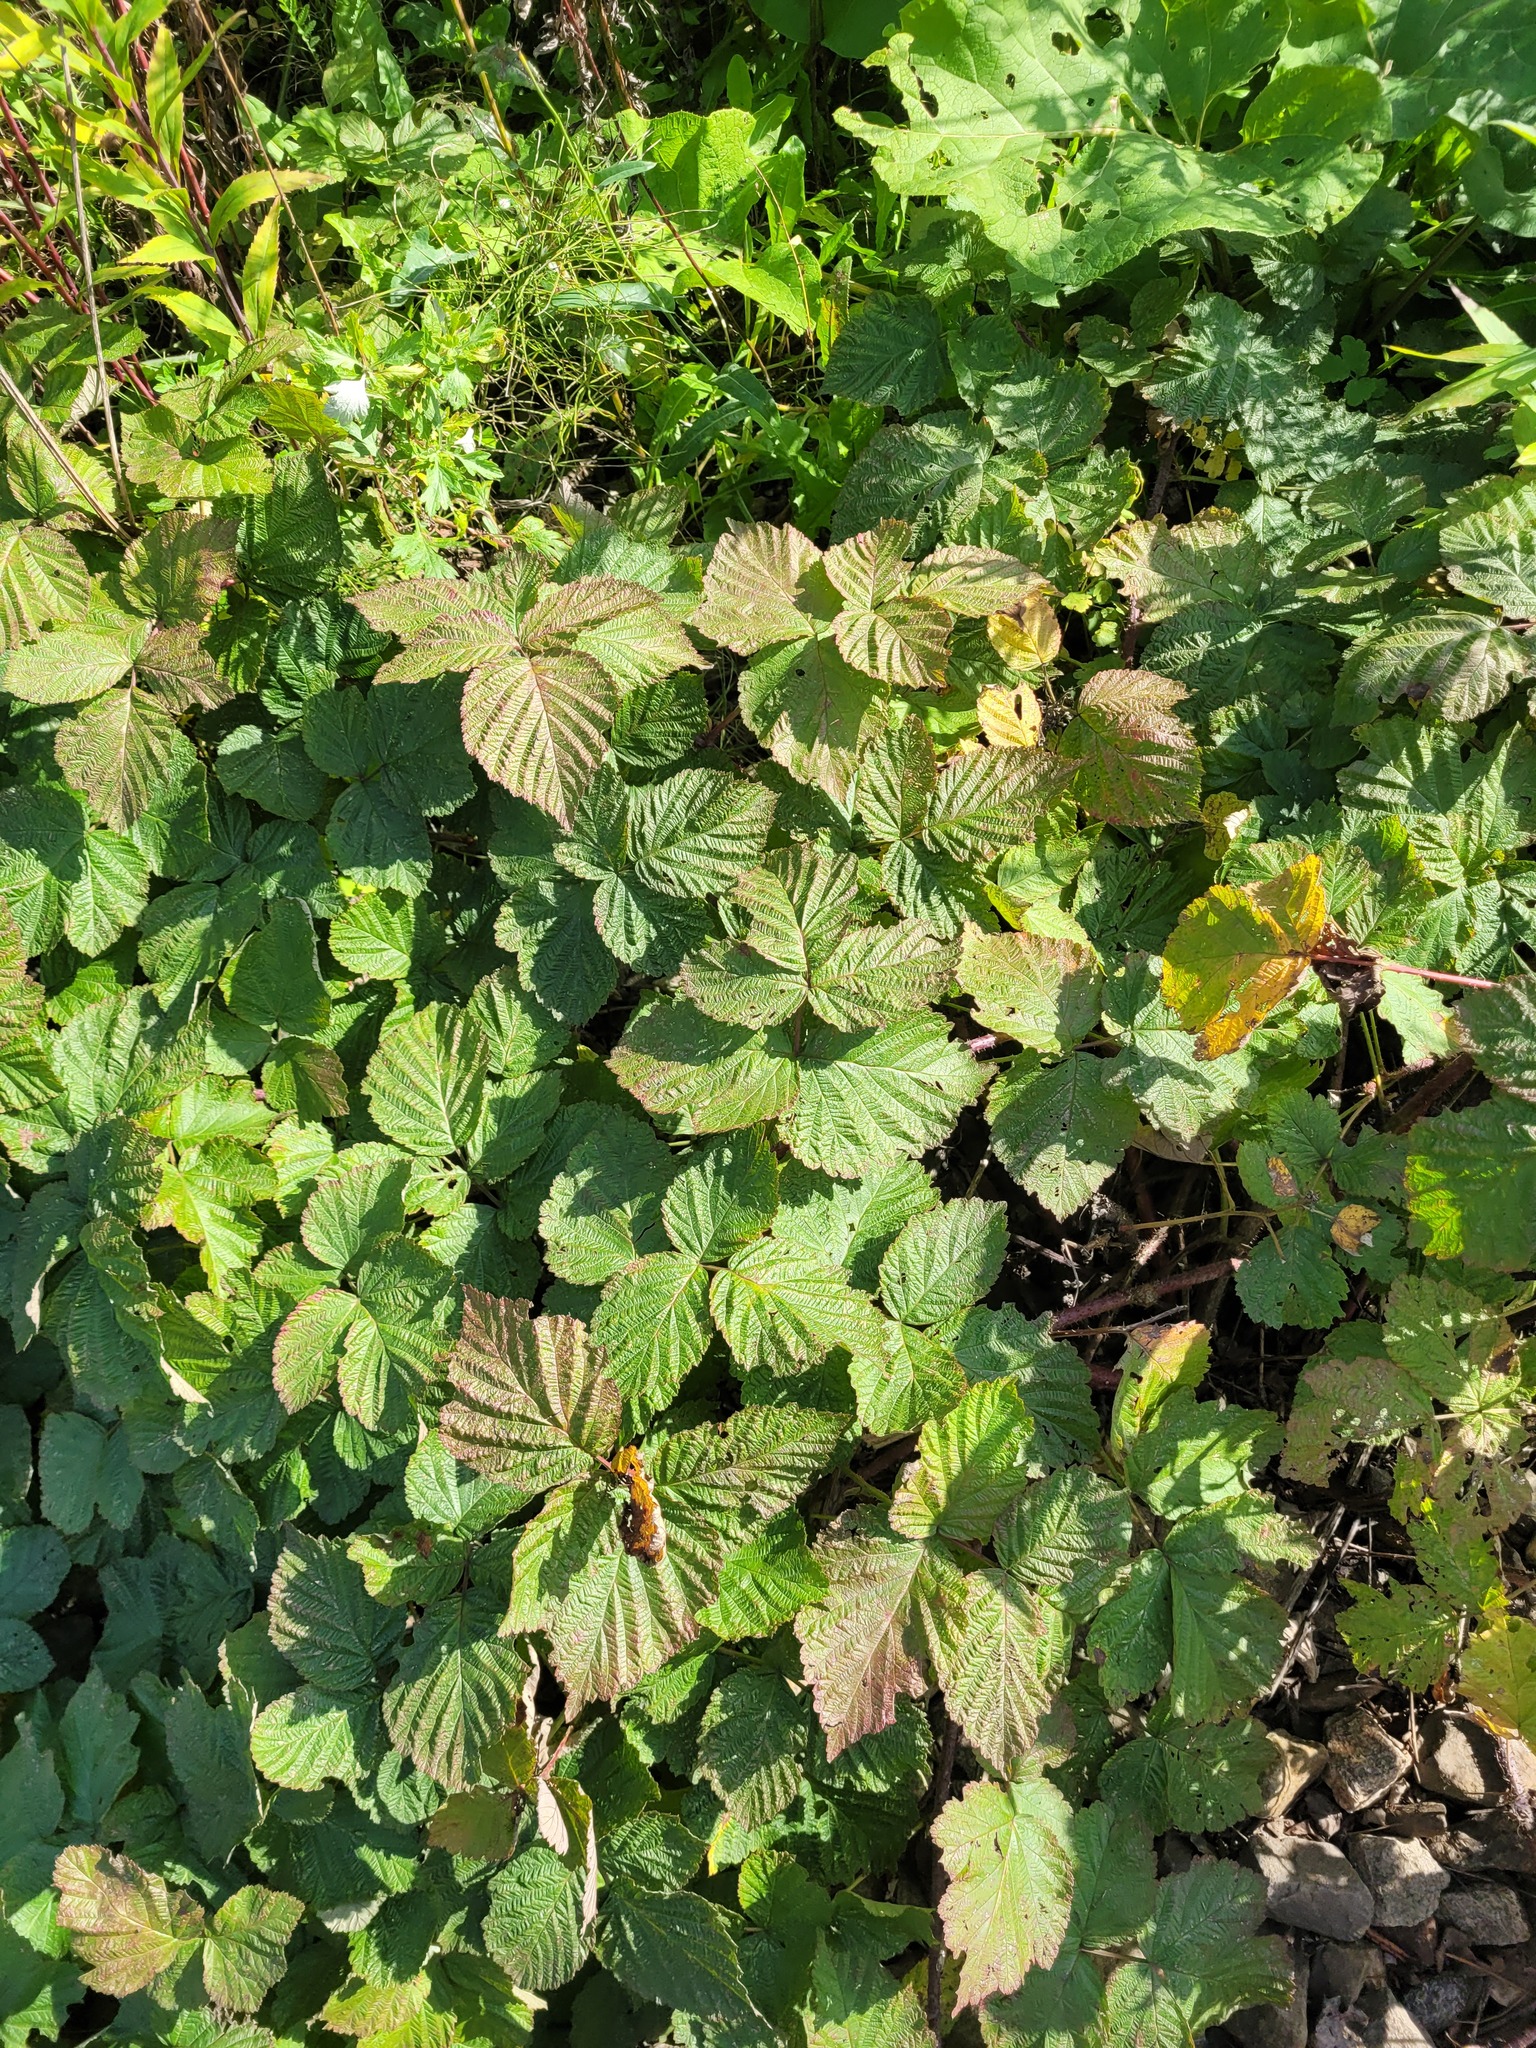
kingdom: Plantae
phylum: Tracheophyta
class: Magnoliopsida
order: Rosales
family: Rosaceae
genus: Rubus
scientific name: Rubus idaeoides
